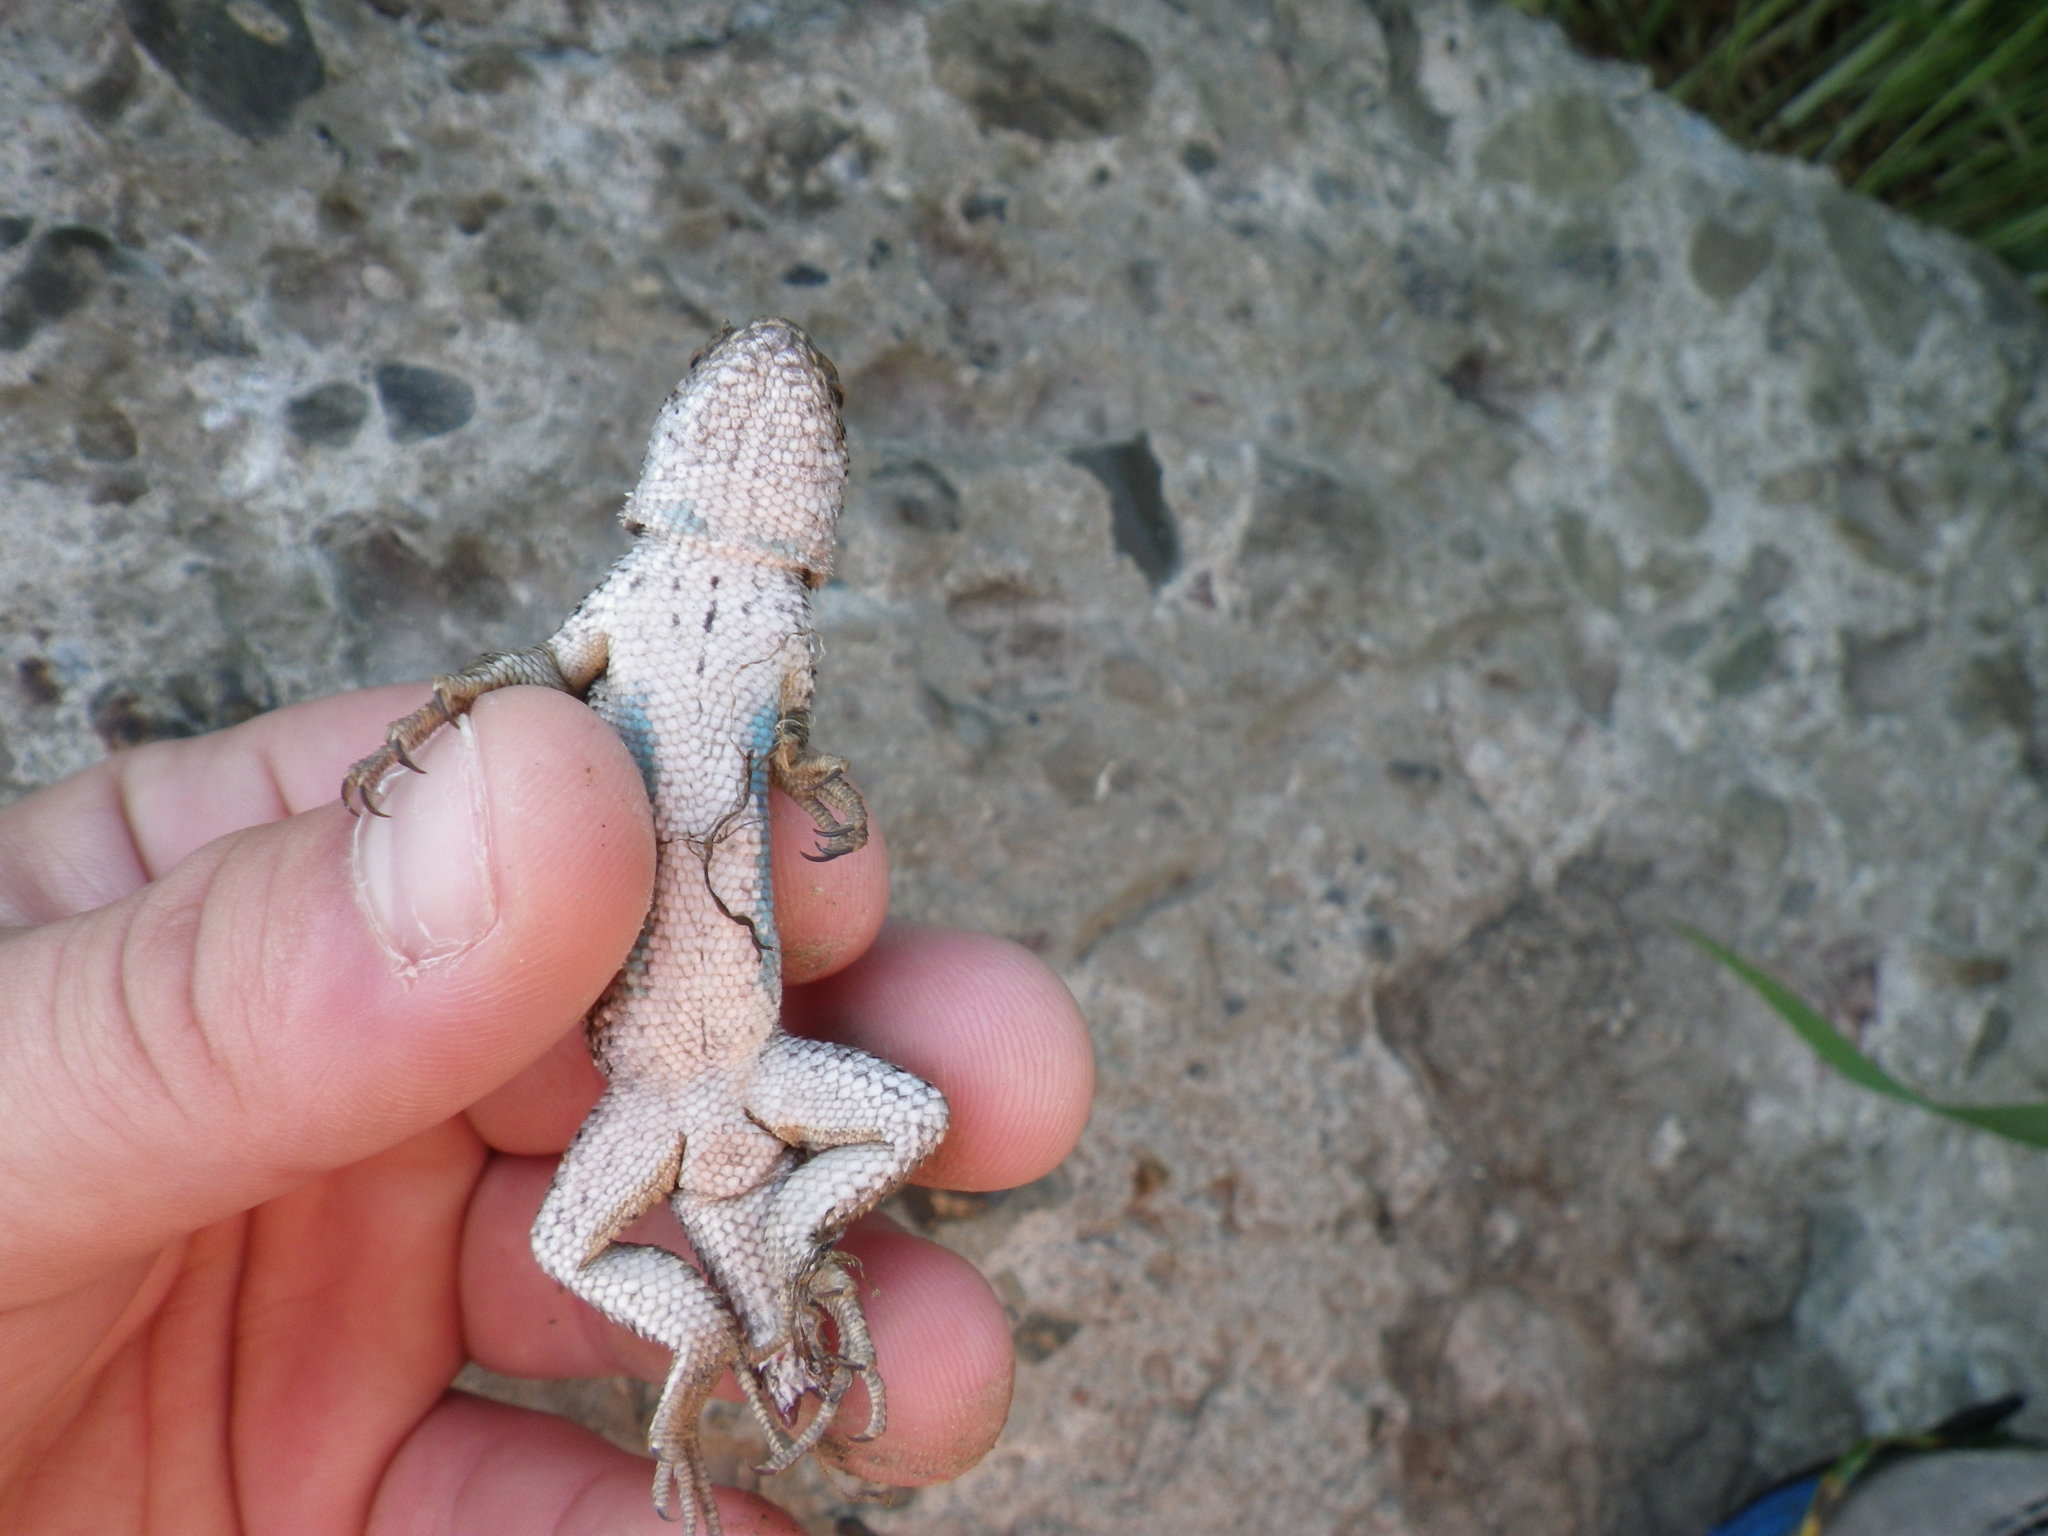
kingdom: Animalia
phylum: Chordata
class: Squamata
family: Phrynosomatidae
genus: Sceloporus
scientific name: Sceloporus occidentalis
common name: Western fence lizard
